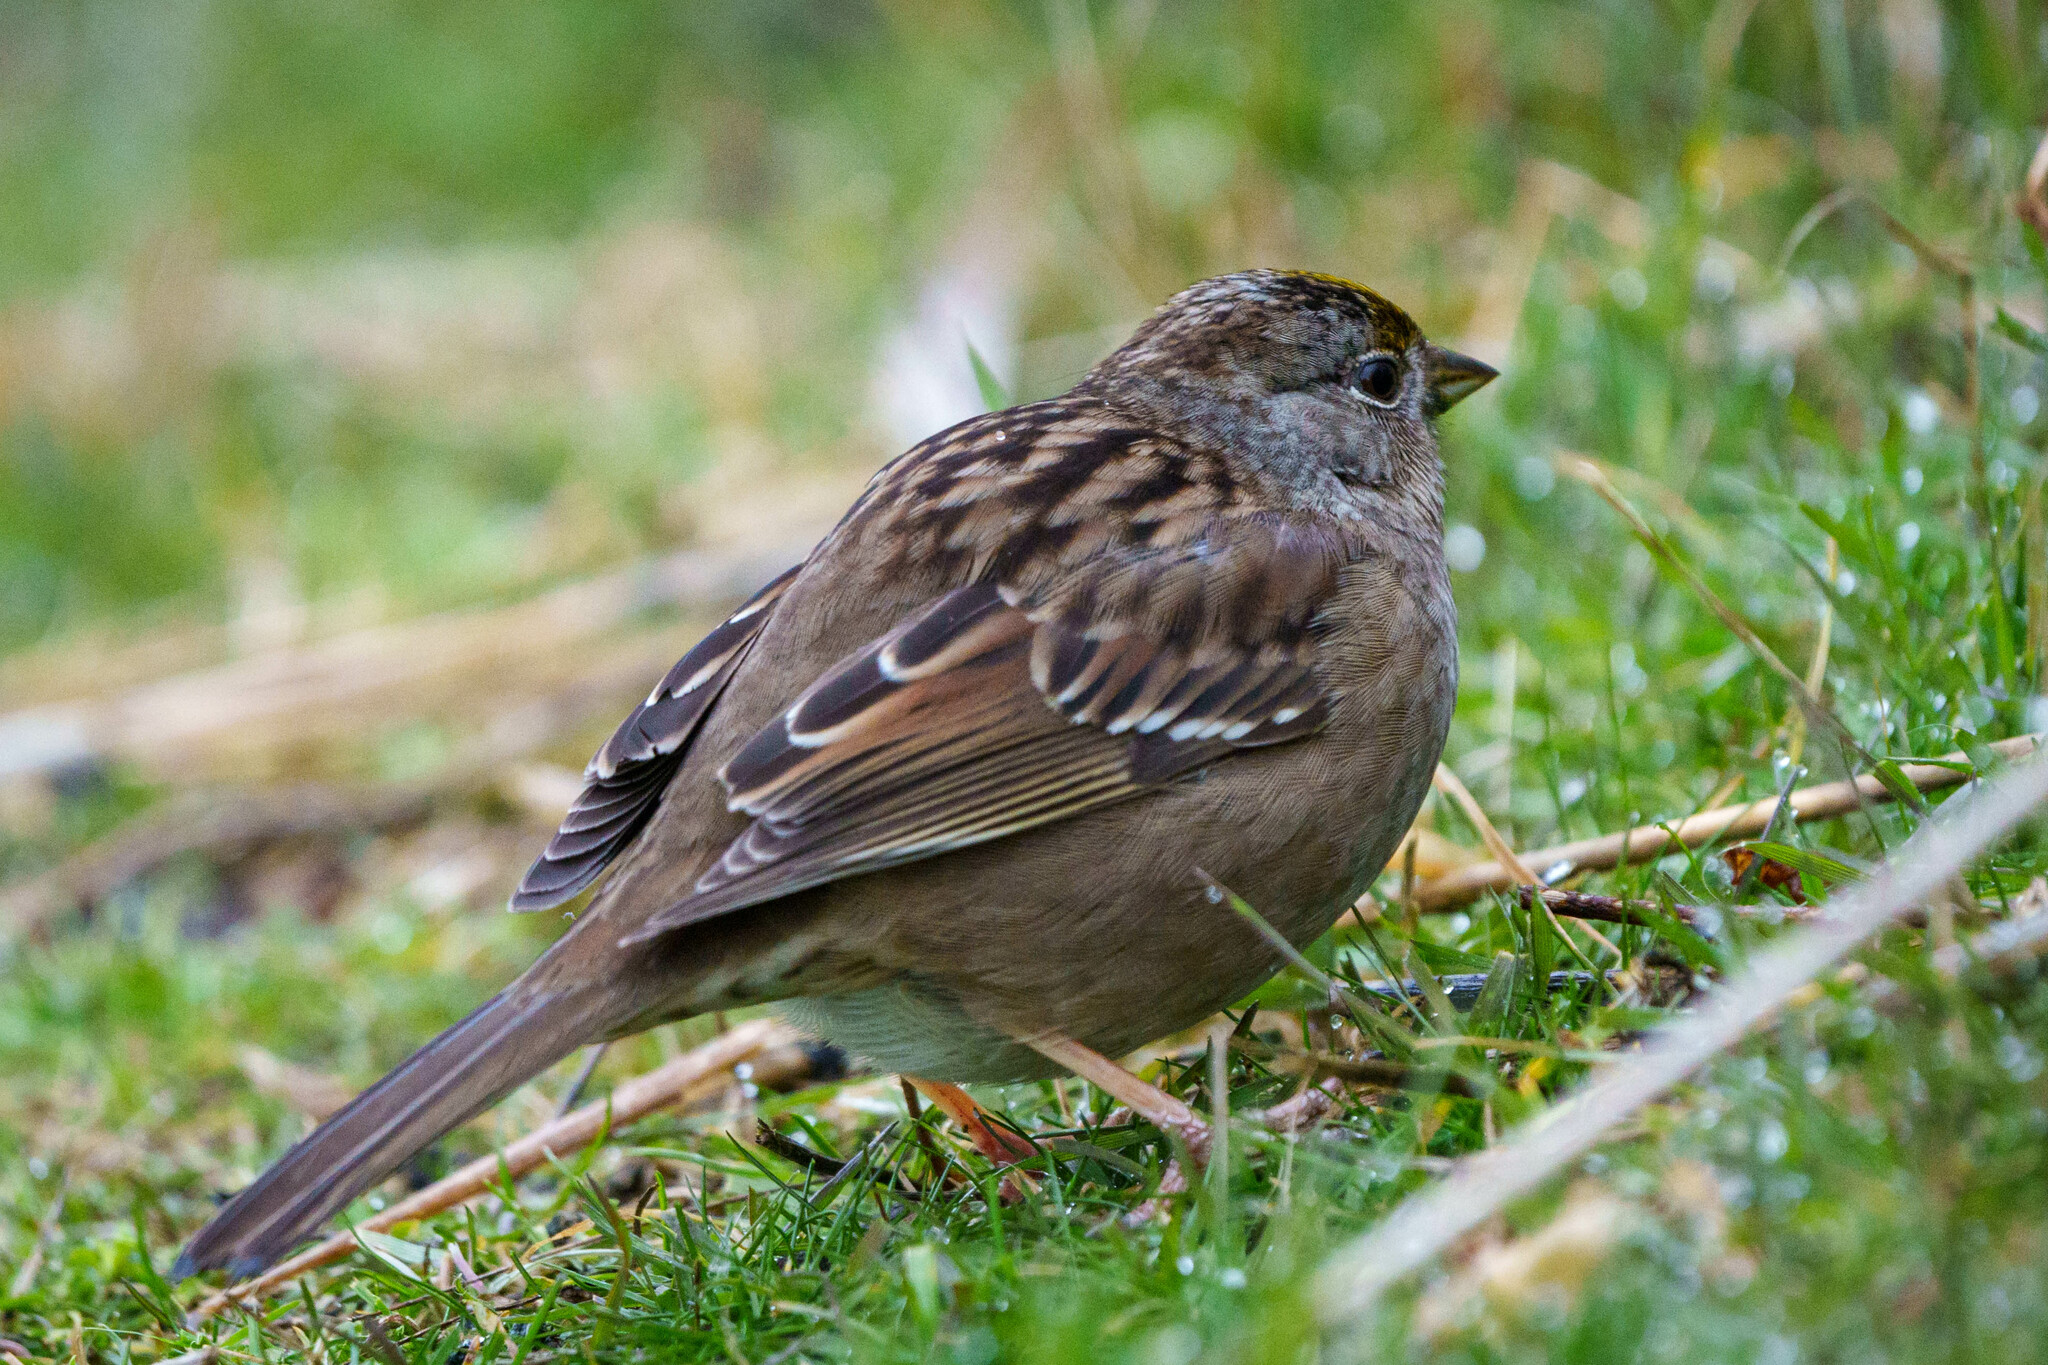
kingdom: Animalia
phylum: Chordata
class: Aves
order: Passeriformes
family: Passerellidae
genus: Zonotrichia
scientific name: Zonotrichia atricapilla
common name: Golden-crowned sparrow
